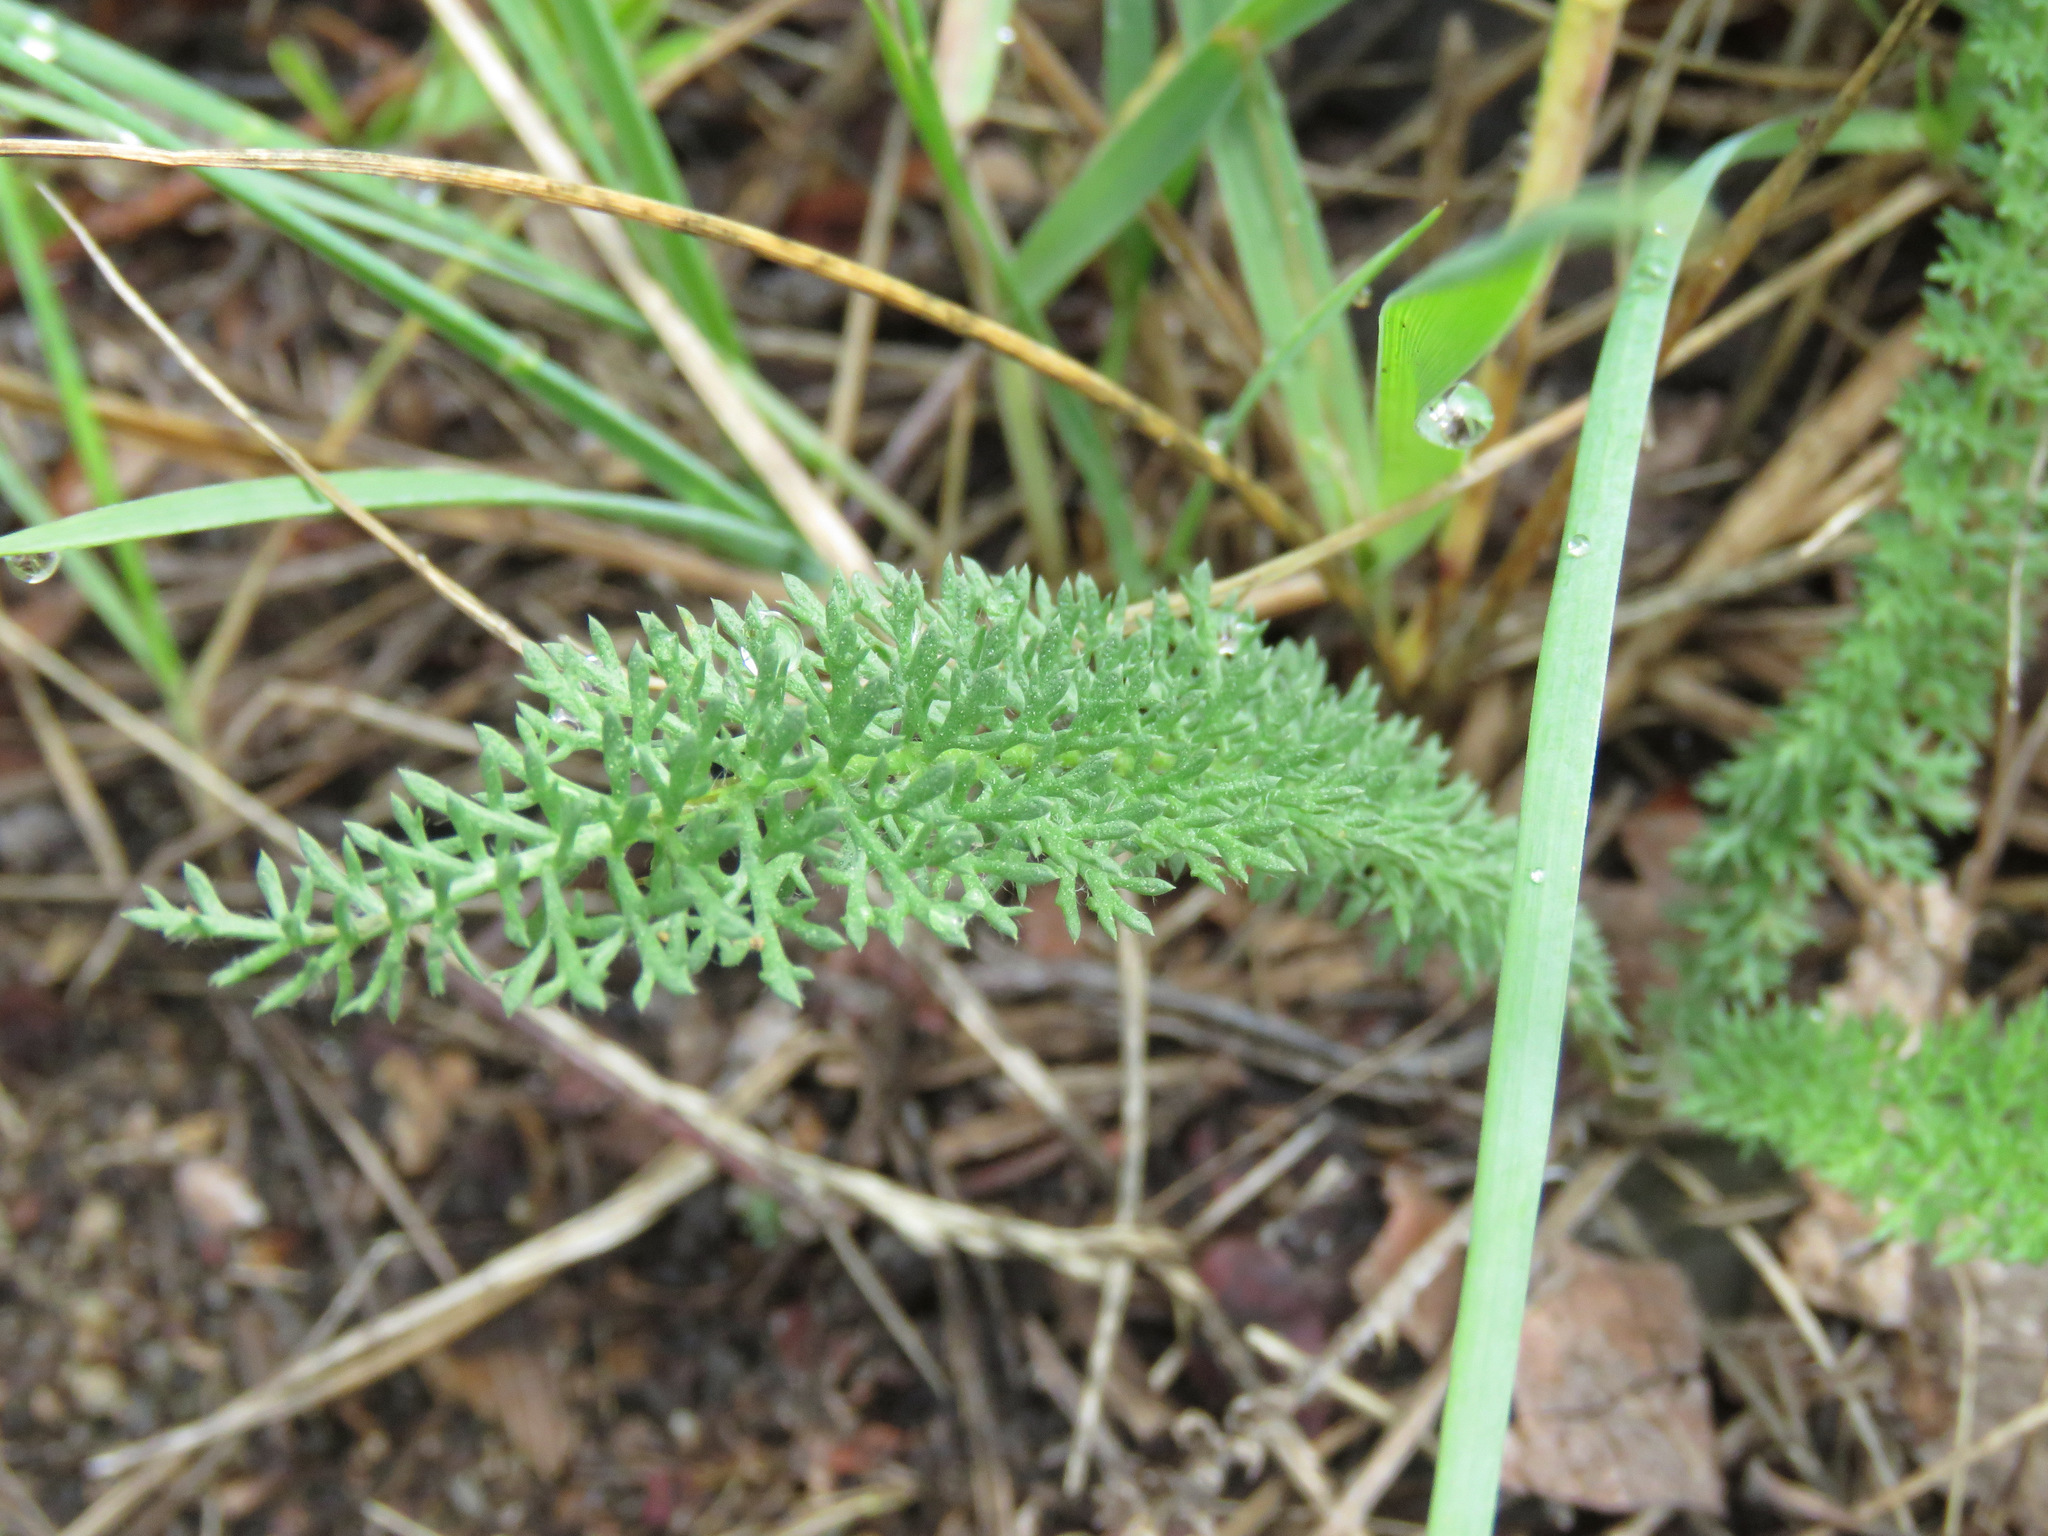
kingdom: Plantae
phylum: Tracheophyta
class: Magnoliopsida
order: Asterales
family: Asteraceae
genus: Achillea
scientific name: Achillea millefolium
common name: Yarrow
